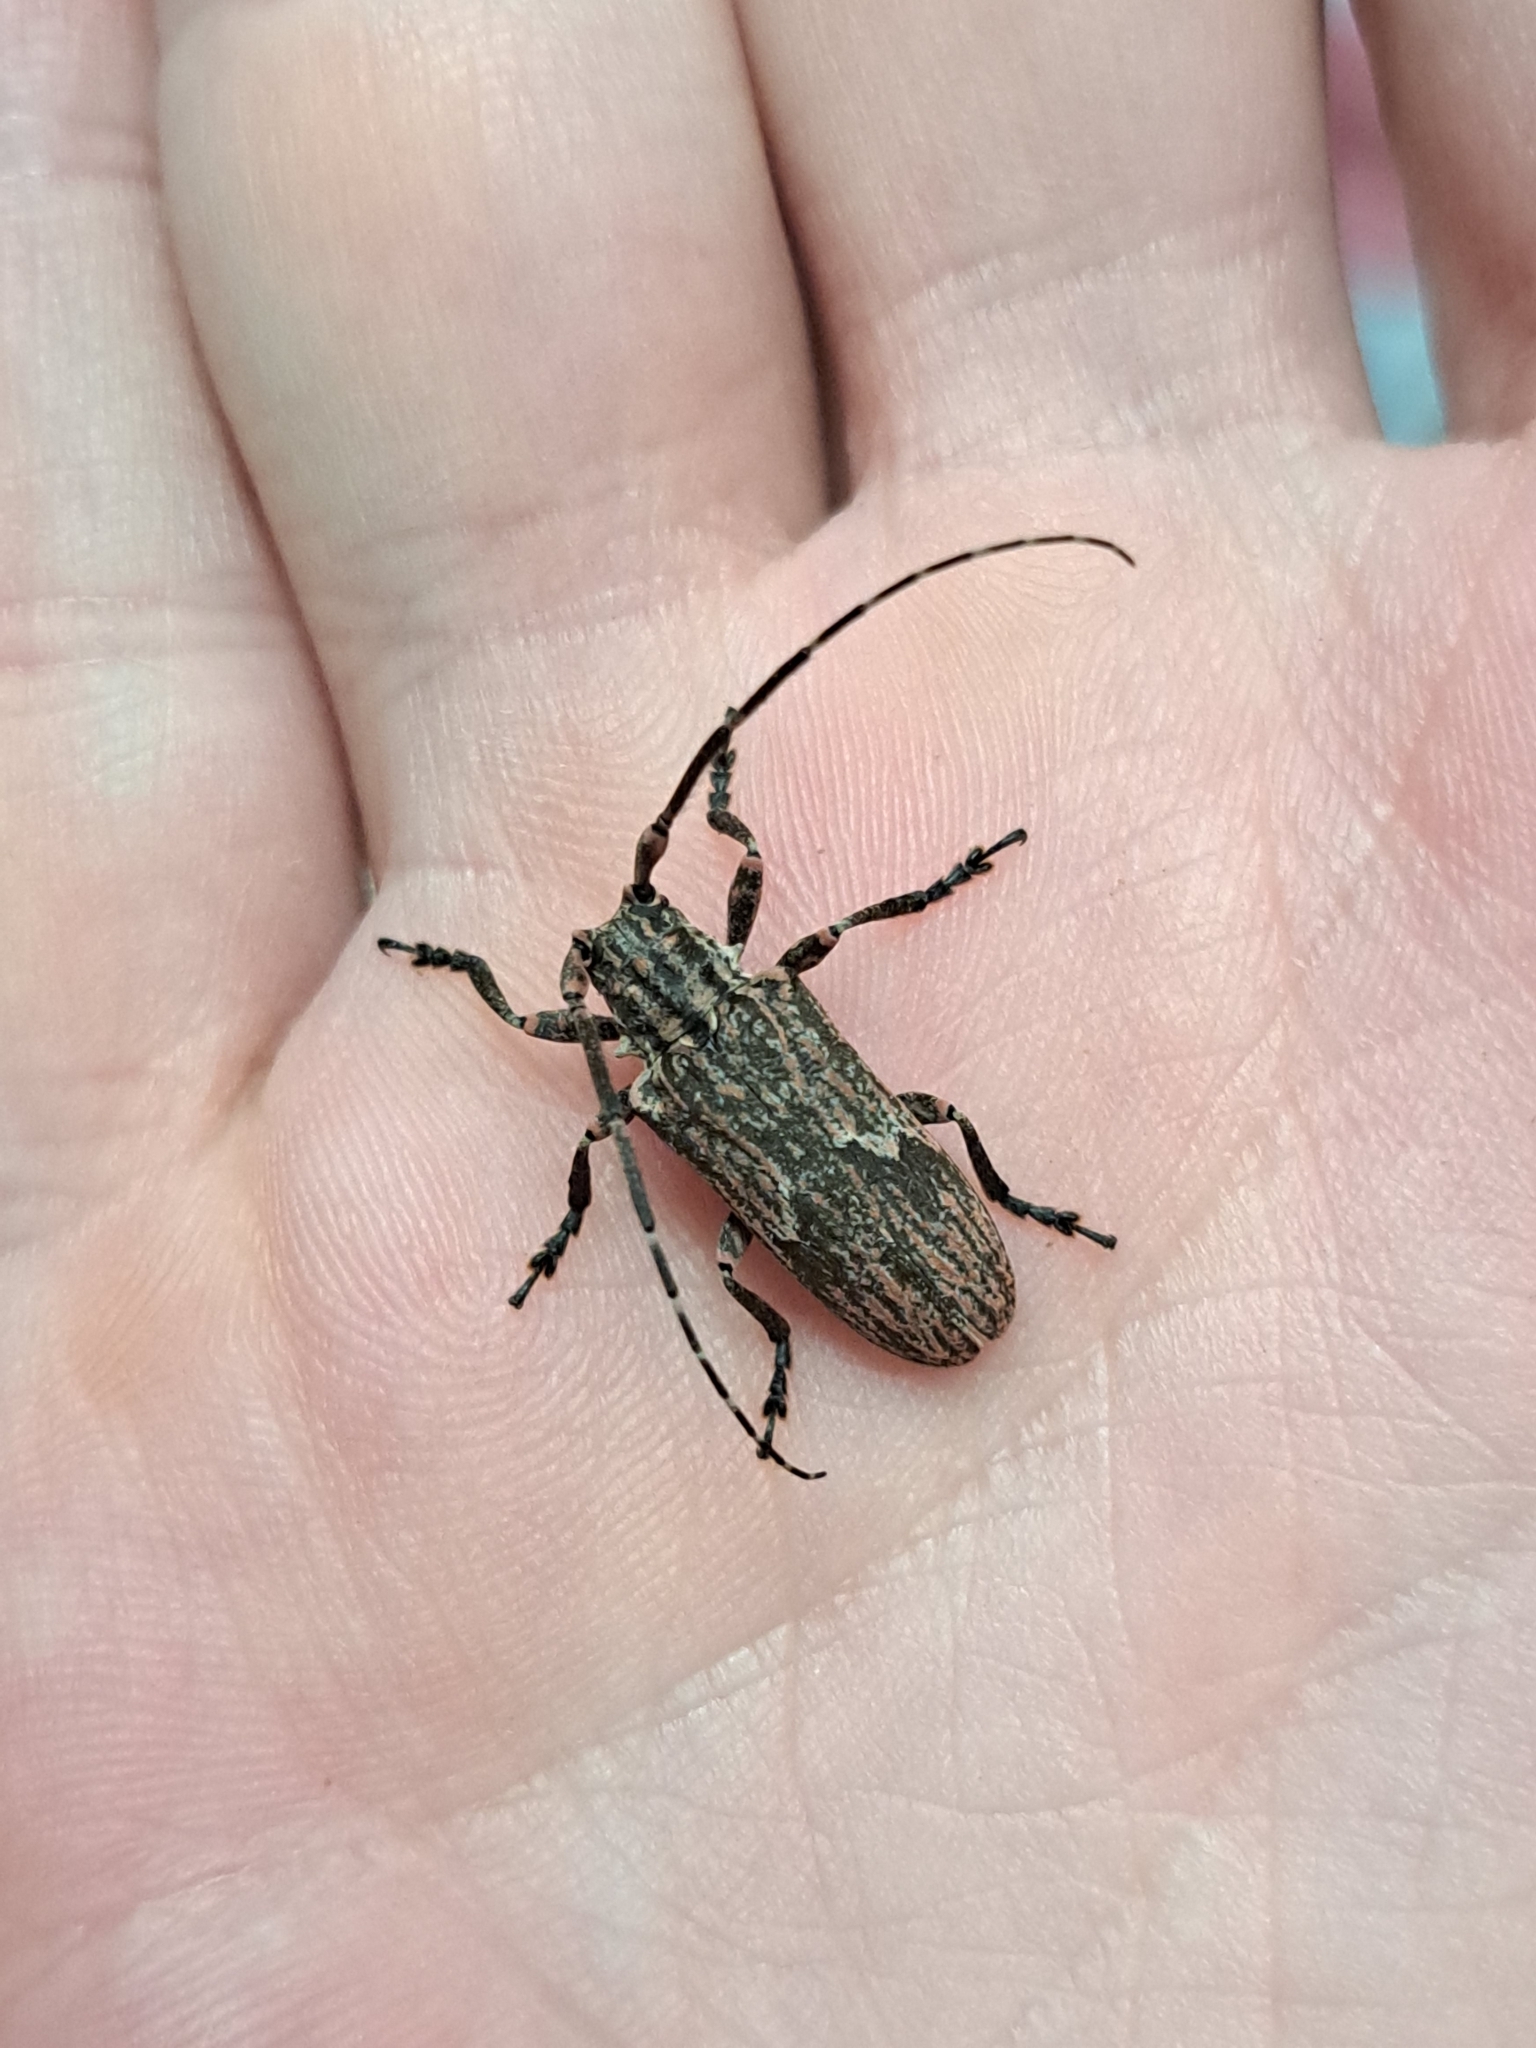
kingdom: Animalia
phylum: Arthropoda
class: Insecta
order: Coleoptera
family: Cerambycidae
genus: Hesychotypa
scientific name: Hesychotypa subfasciata
